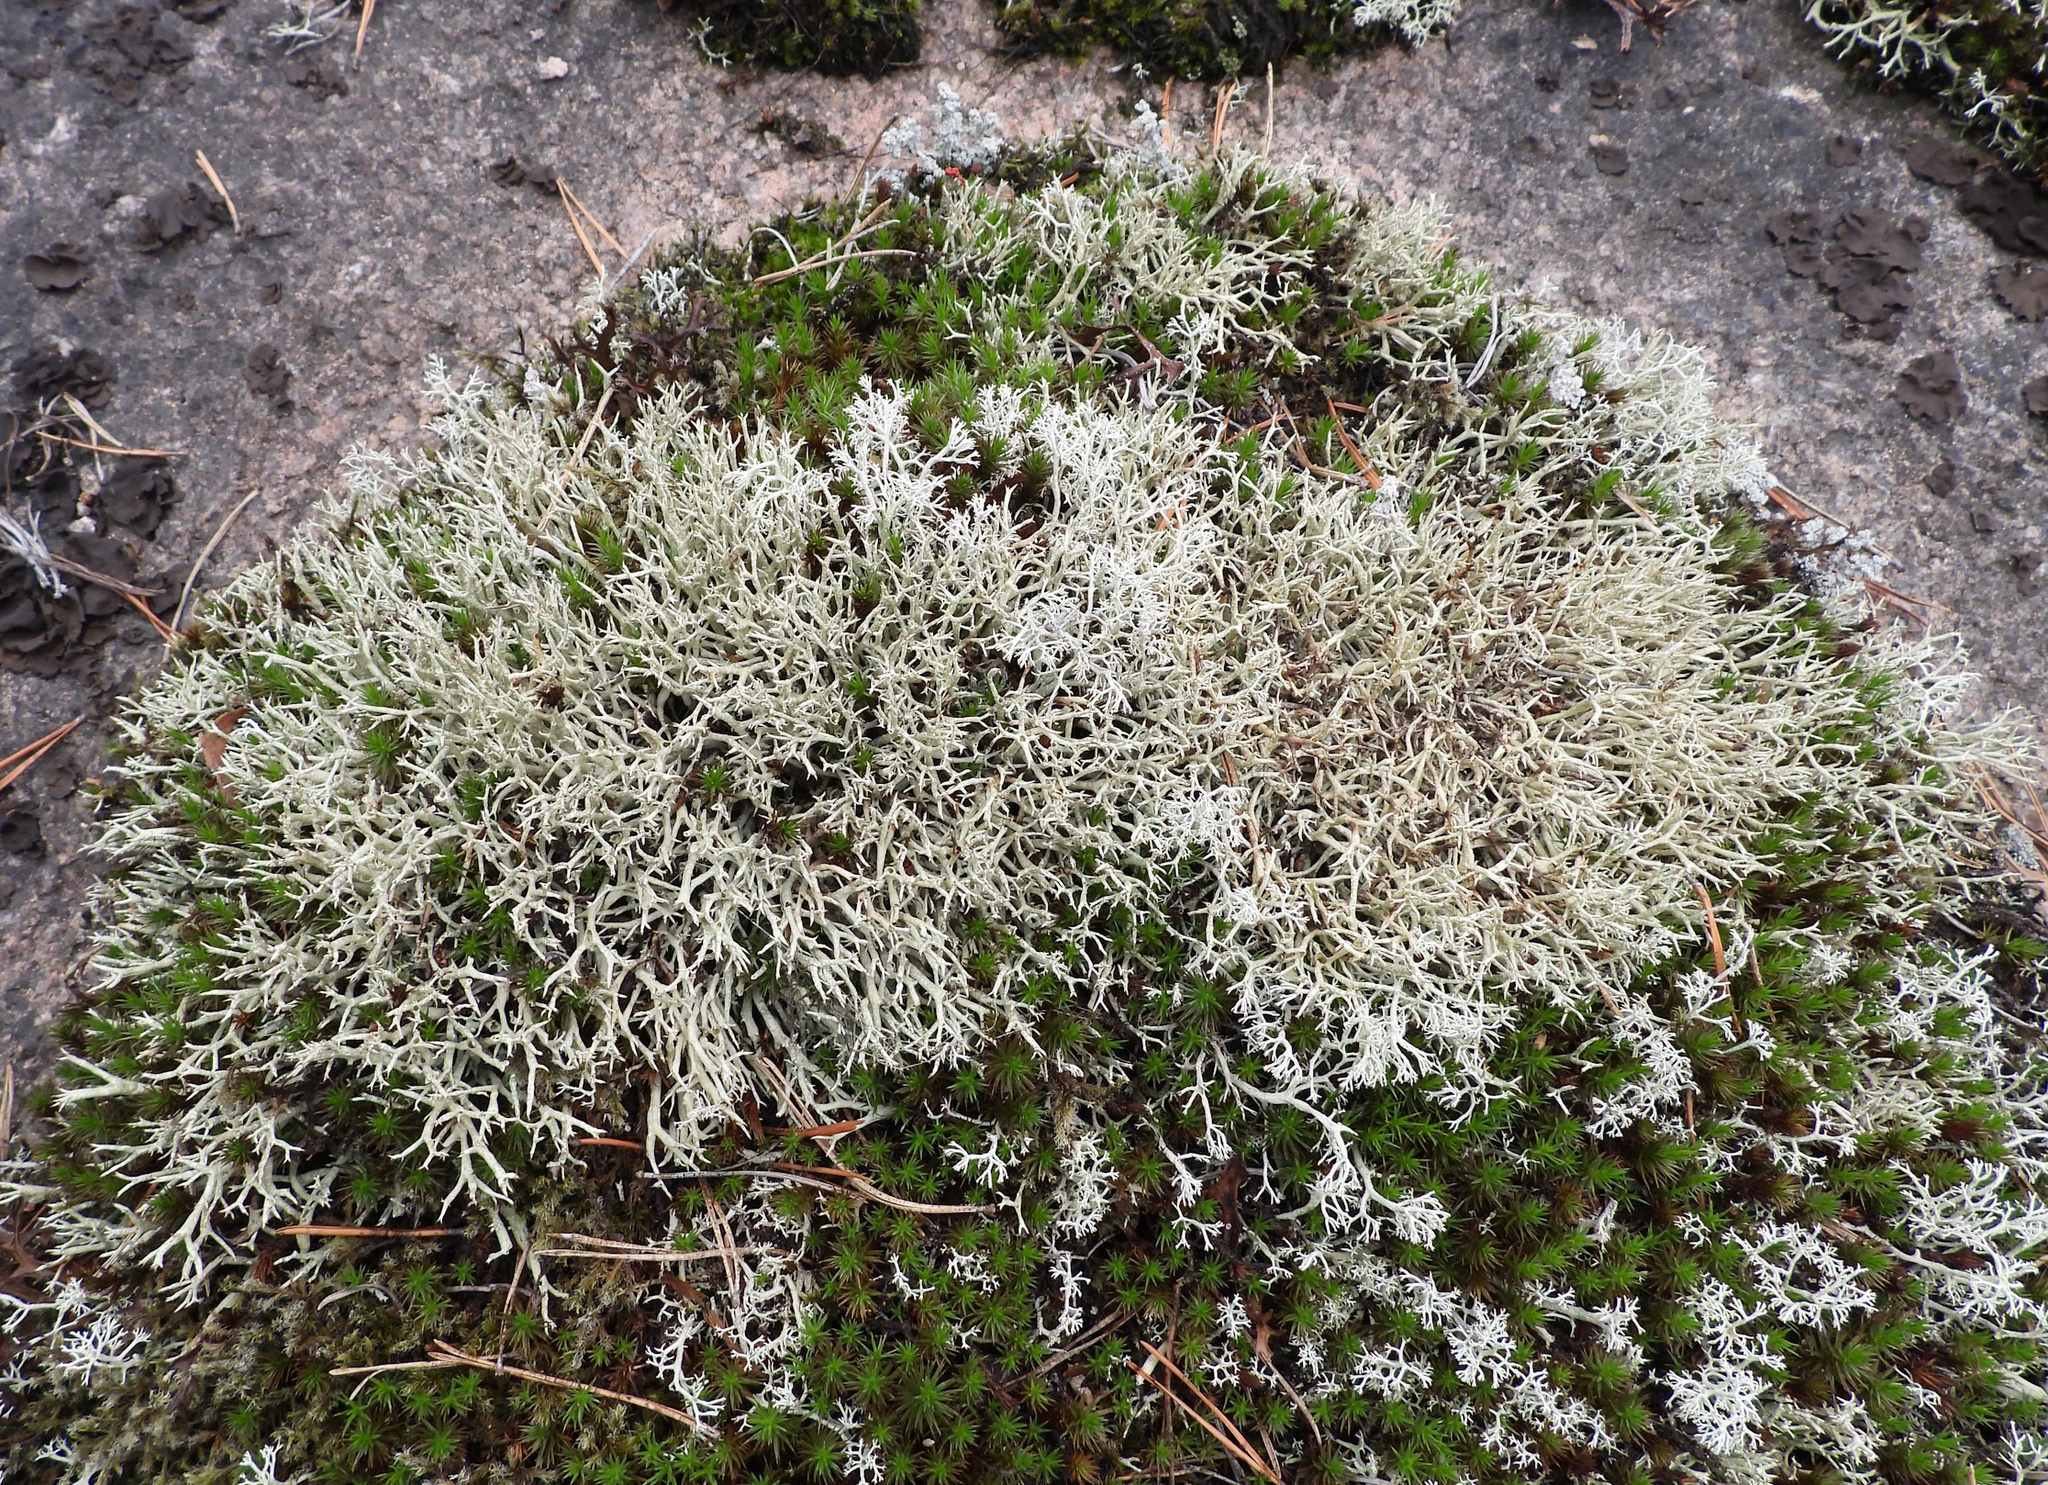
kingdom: Fungi
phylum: Ascomycota
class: Lecanoromycetes
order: Lecanorales
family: Cladoniaceae
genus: Cladonia
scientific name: Cladonia uncialis
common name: Thorn lichen
